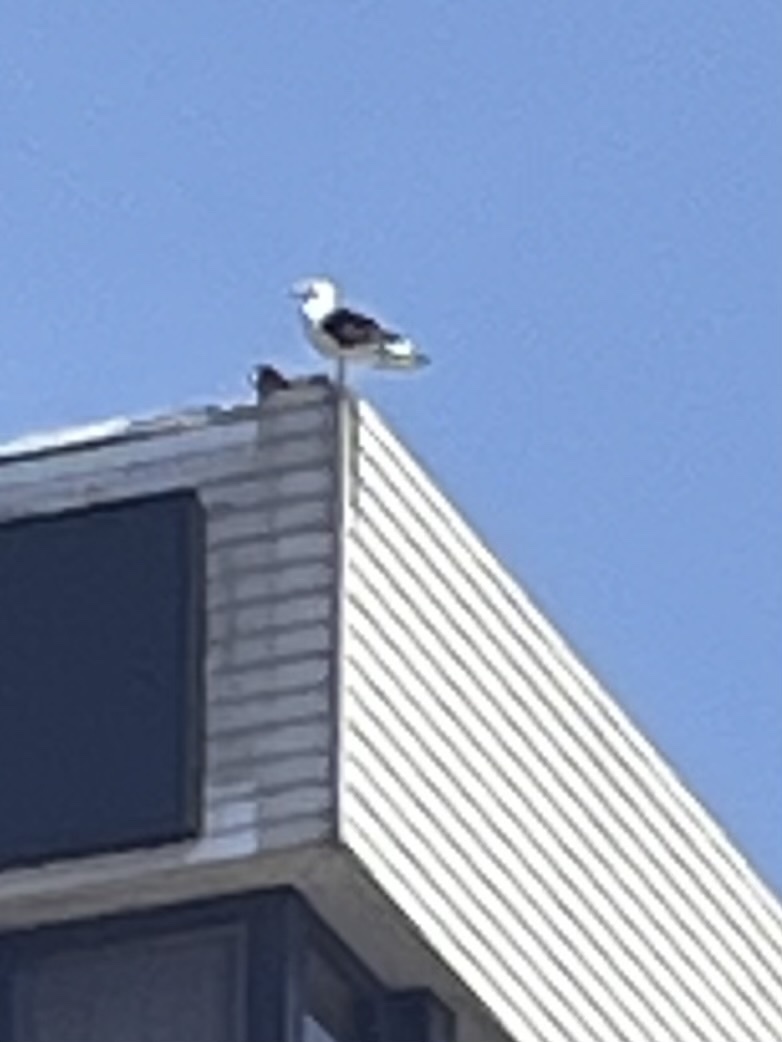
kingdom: Animalia
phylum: Chordata
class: Aves
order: Charadriiformes
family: Laridae
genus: Larus
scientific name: Larus dominicanus
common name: Kelp gull
